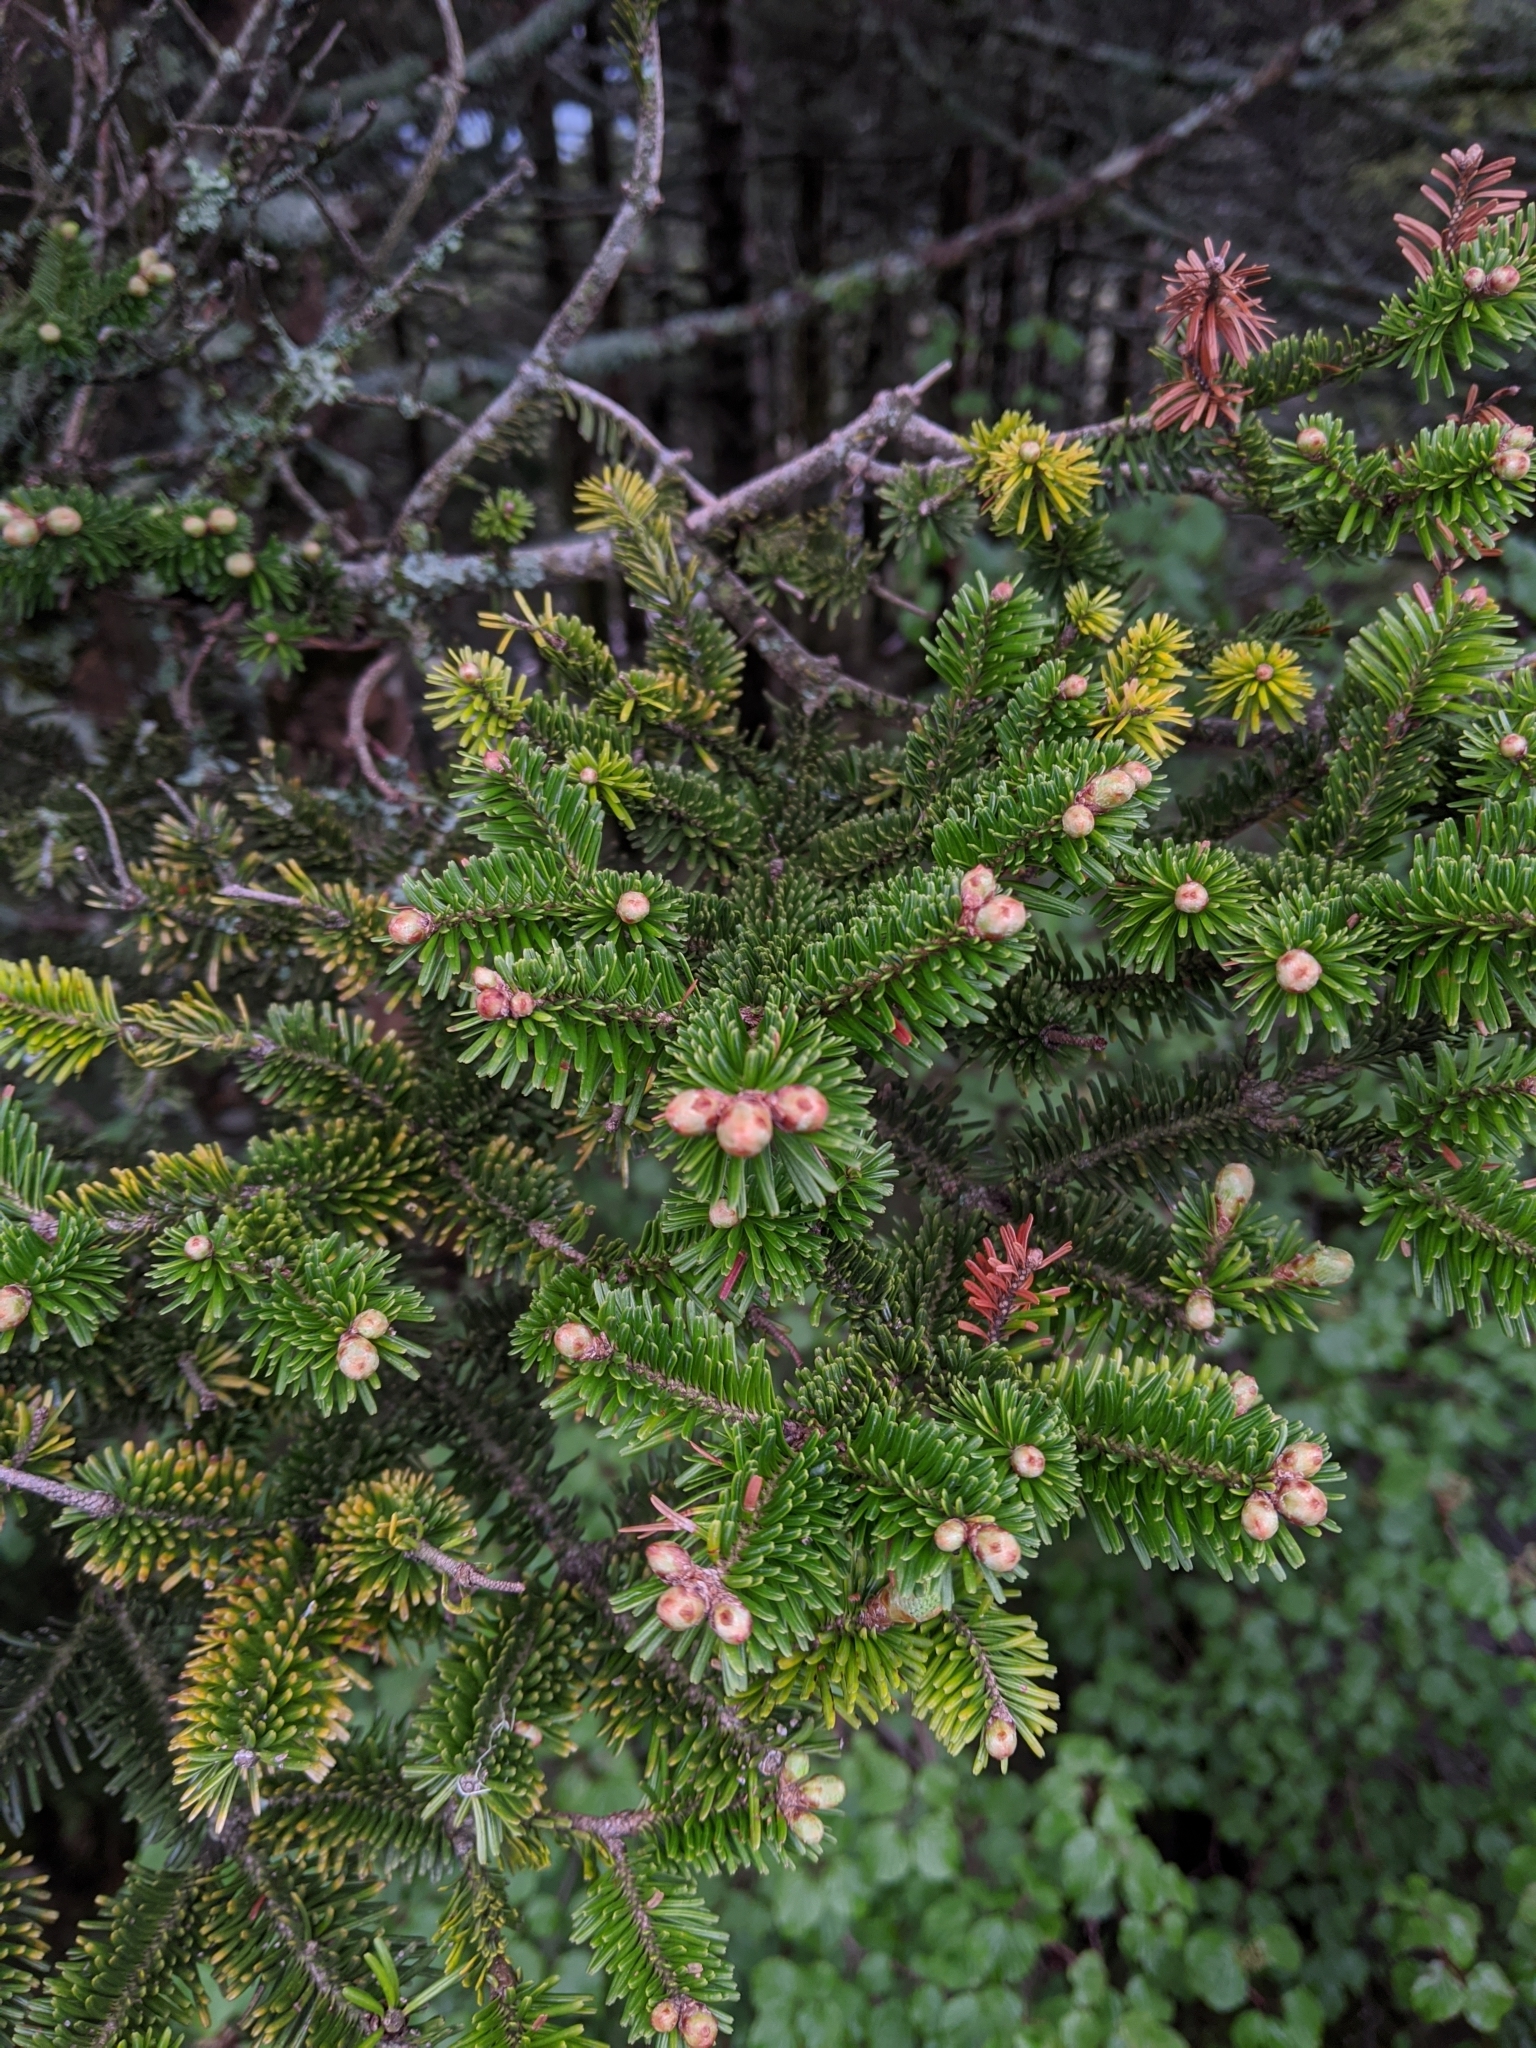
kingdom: Plantae
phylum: Tracheophyta
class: Pinopsida
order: Pinales
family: Pinaceae
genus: Abies
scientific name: Abies kawakamii
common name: Taiwan fir
